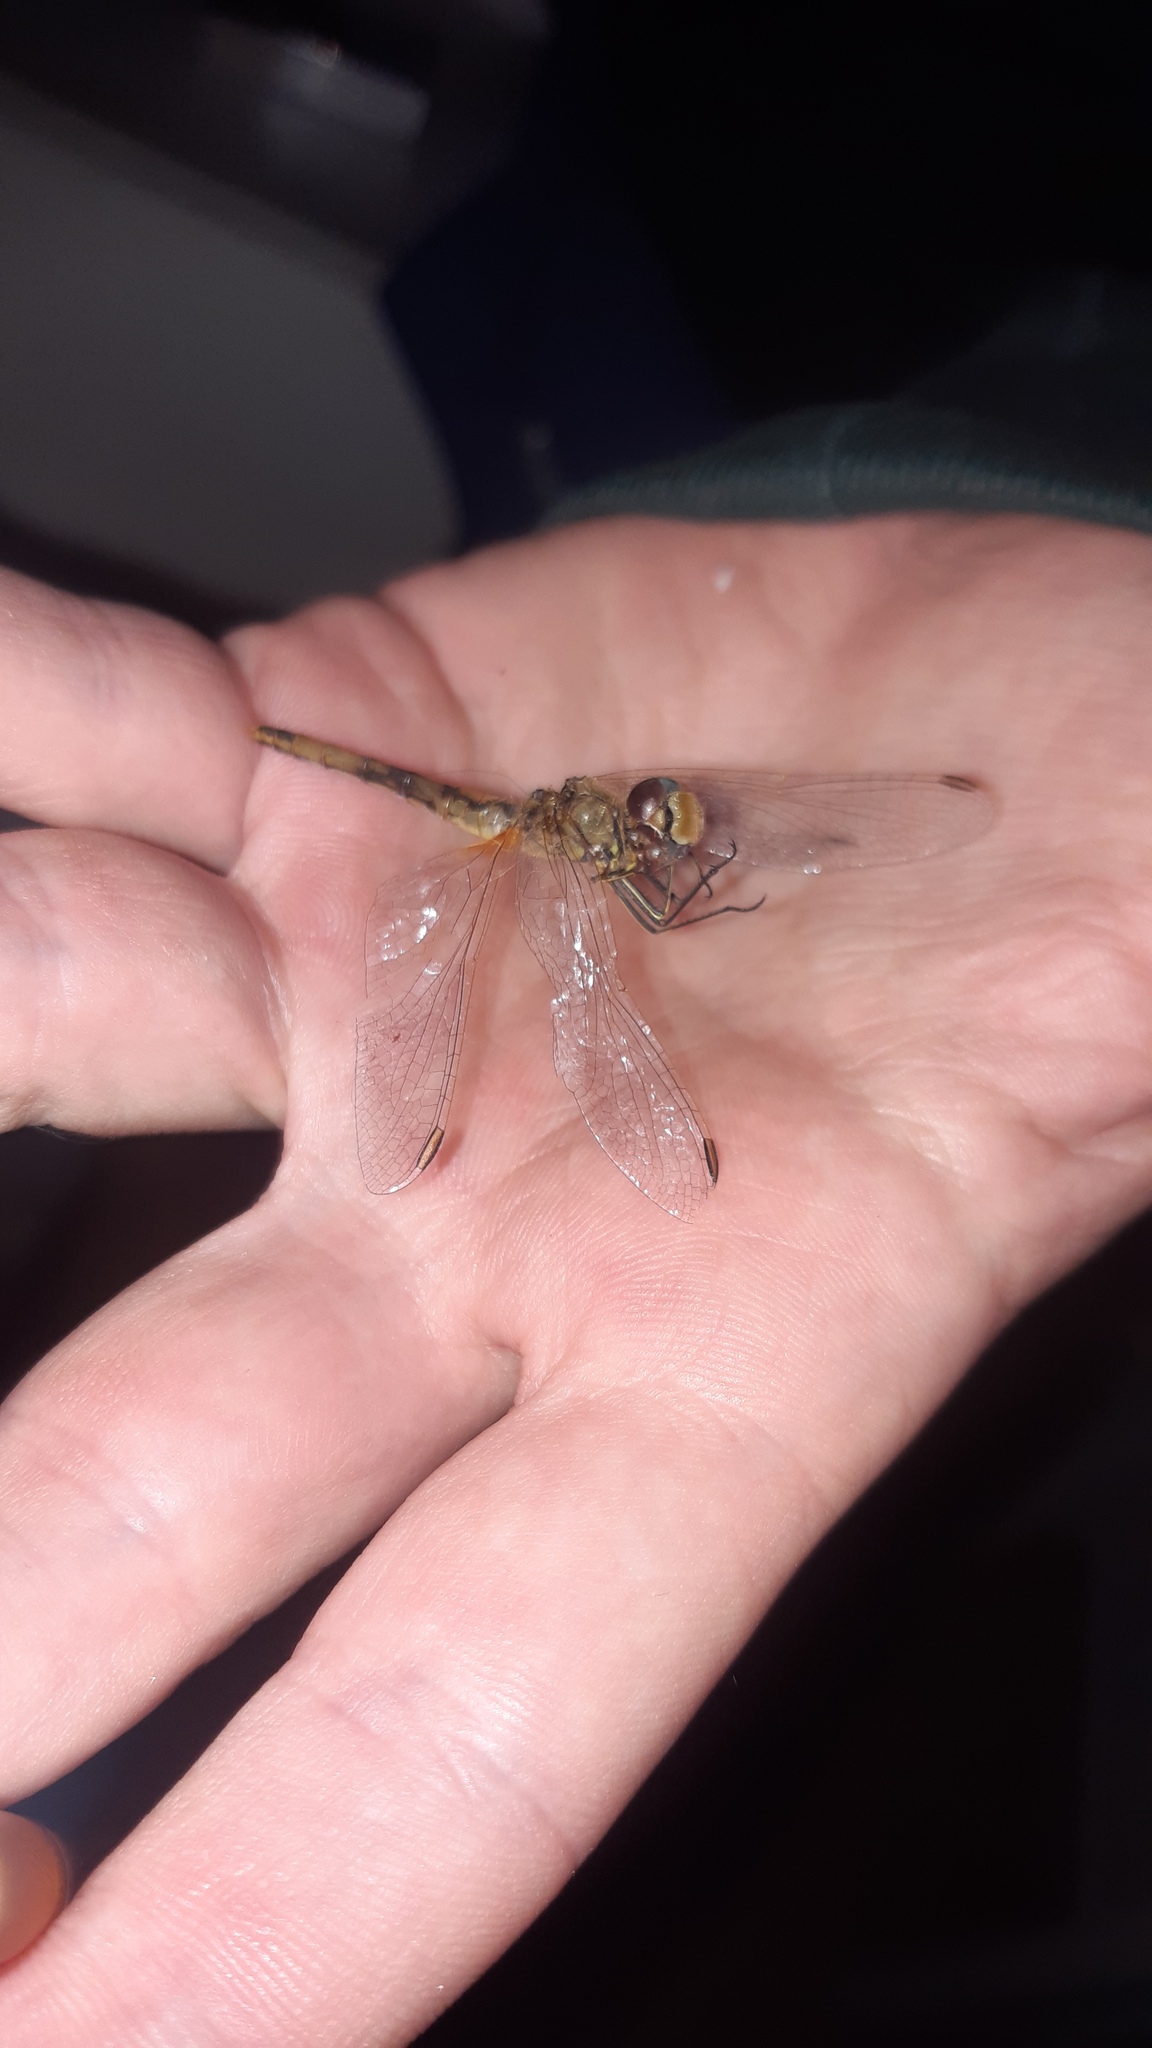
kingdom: Animalia
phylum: Arthropoda
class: Insecta
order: Odonata
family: Libellulidae
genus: Sympetrum
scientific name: Sympetrum fonscolombii
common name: Red-veined darter
